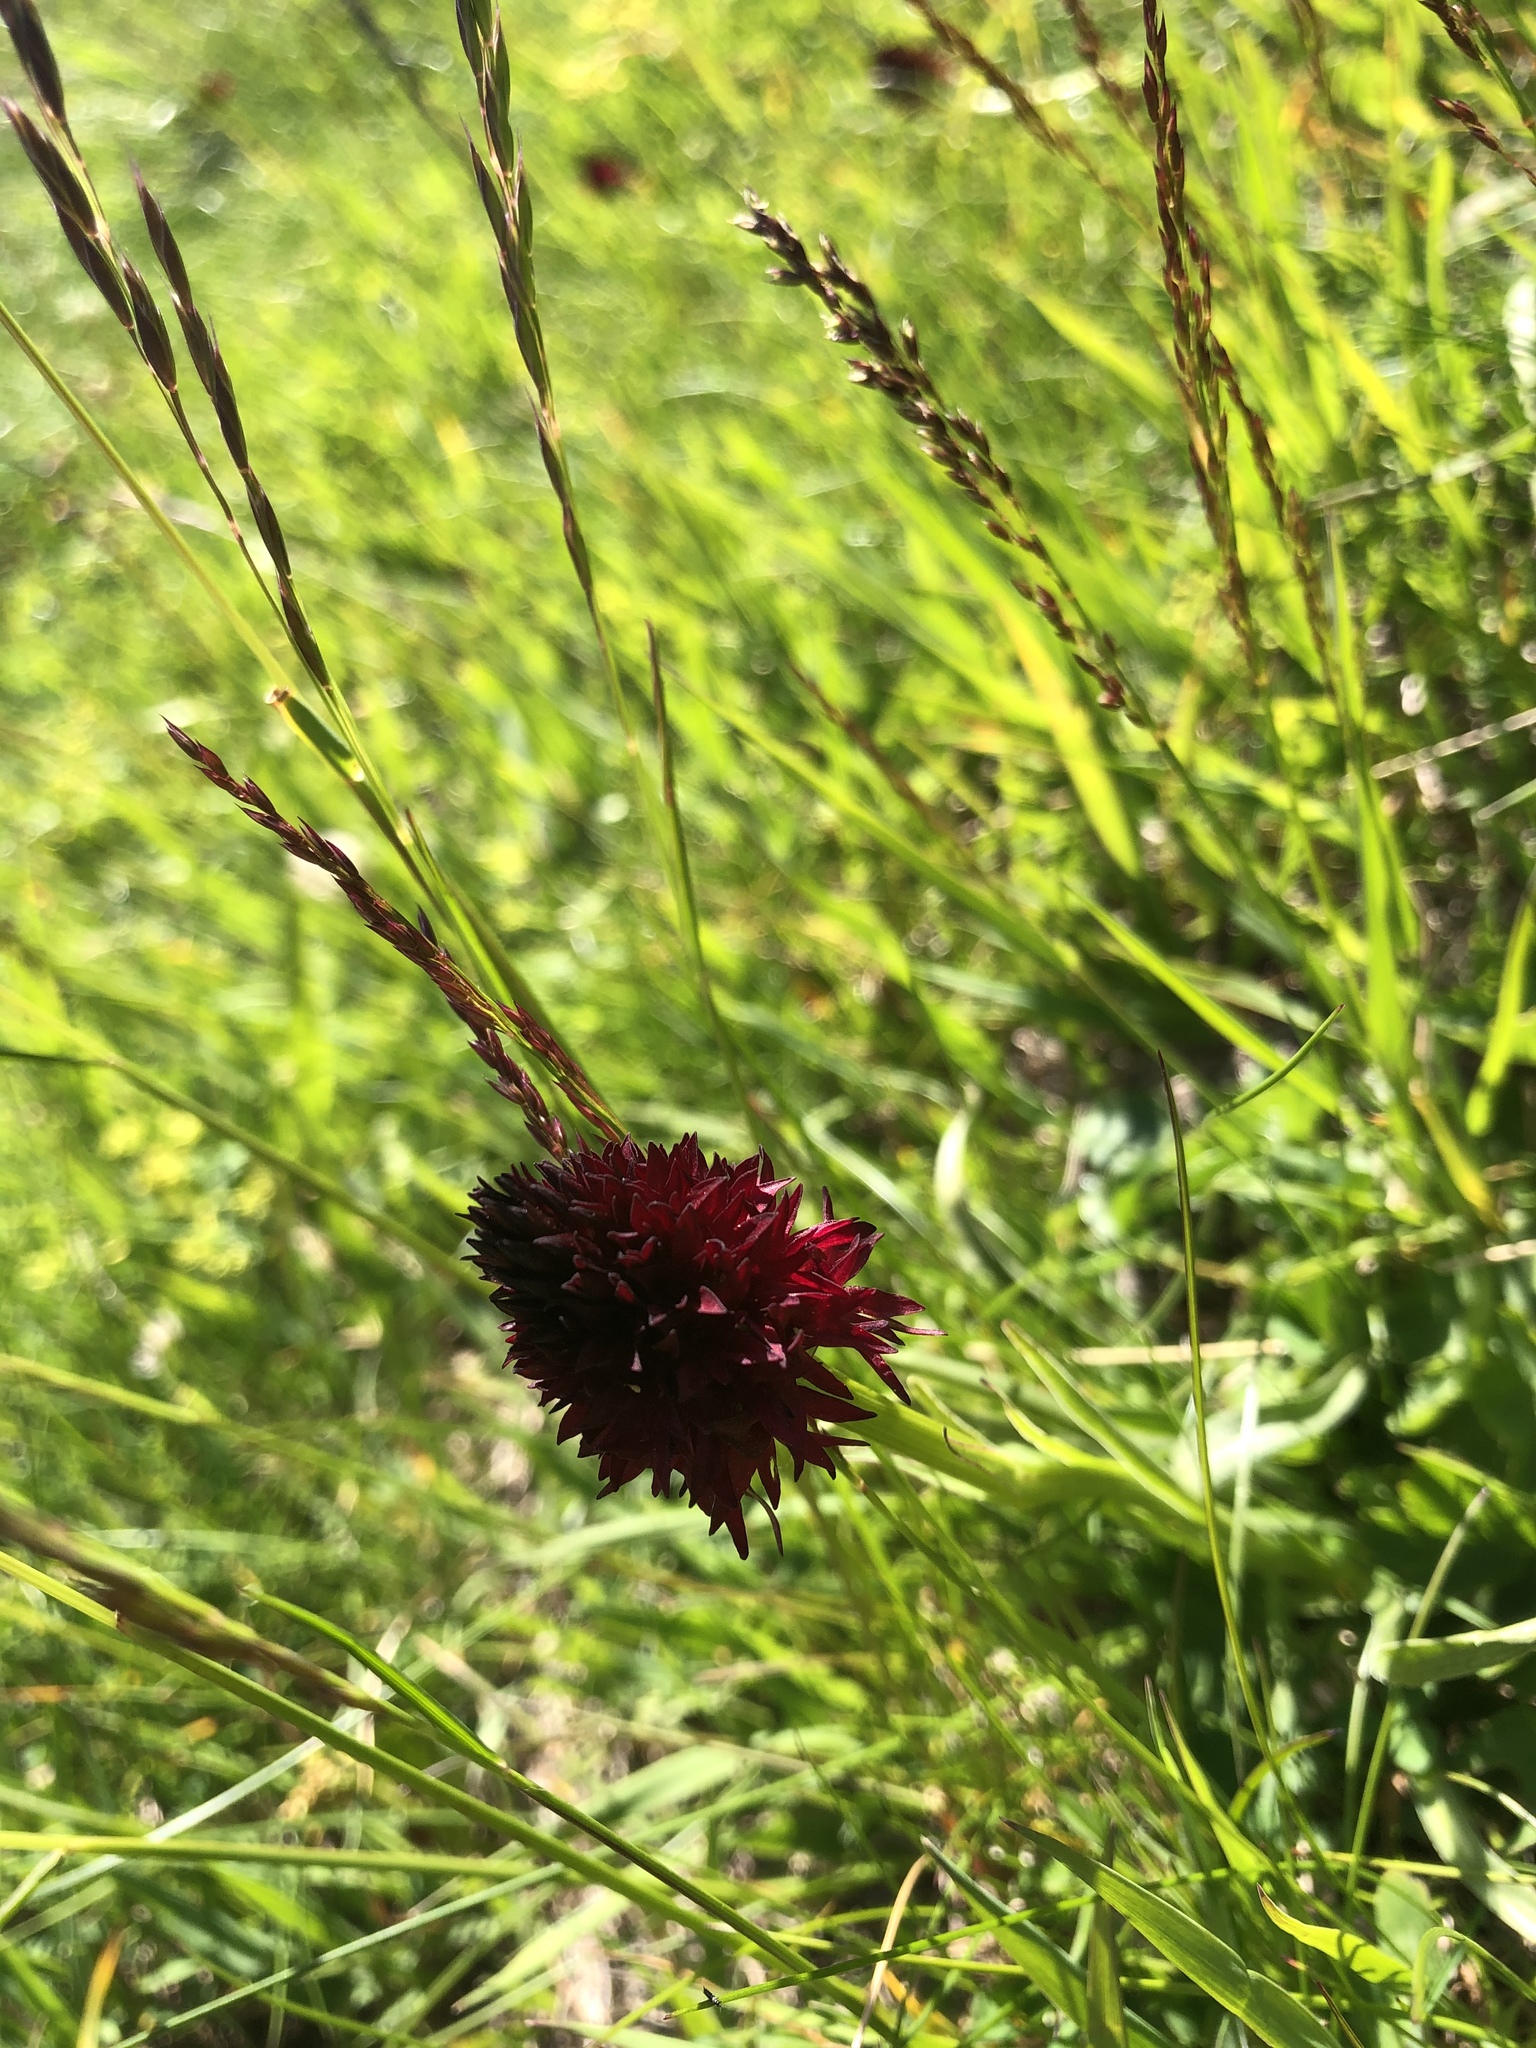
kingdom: Plantae
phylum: Tracheophyta
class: Liliopsida
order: Asparagales
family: Orchidaceae
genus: Gymnadenia
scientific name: Gymnadenia rhellicani
